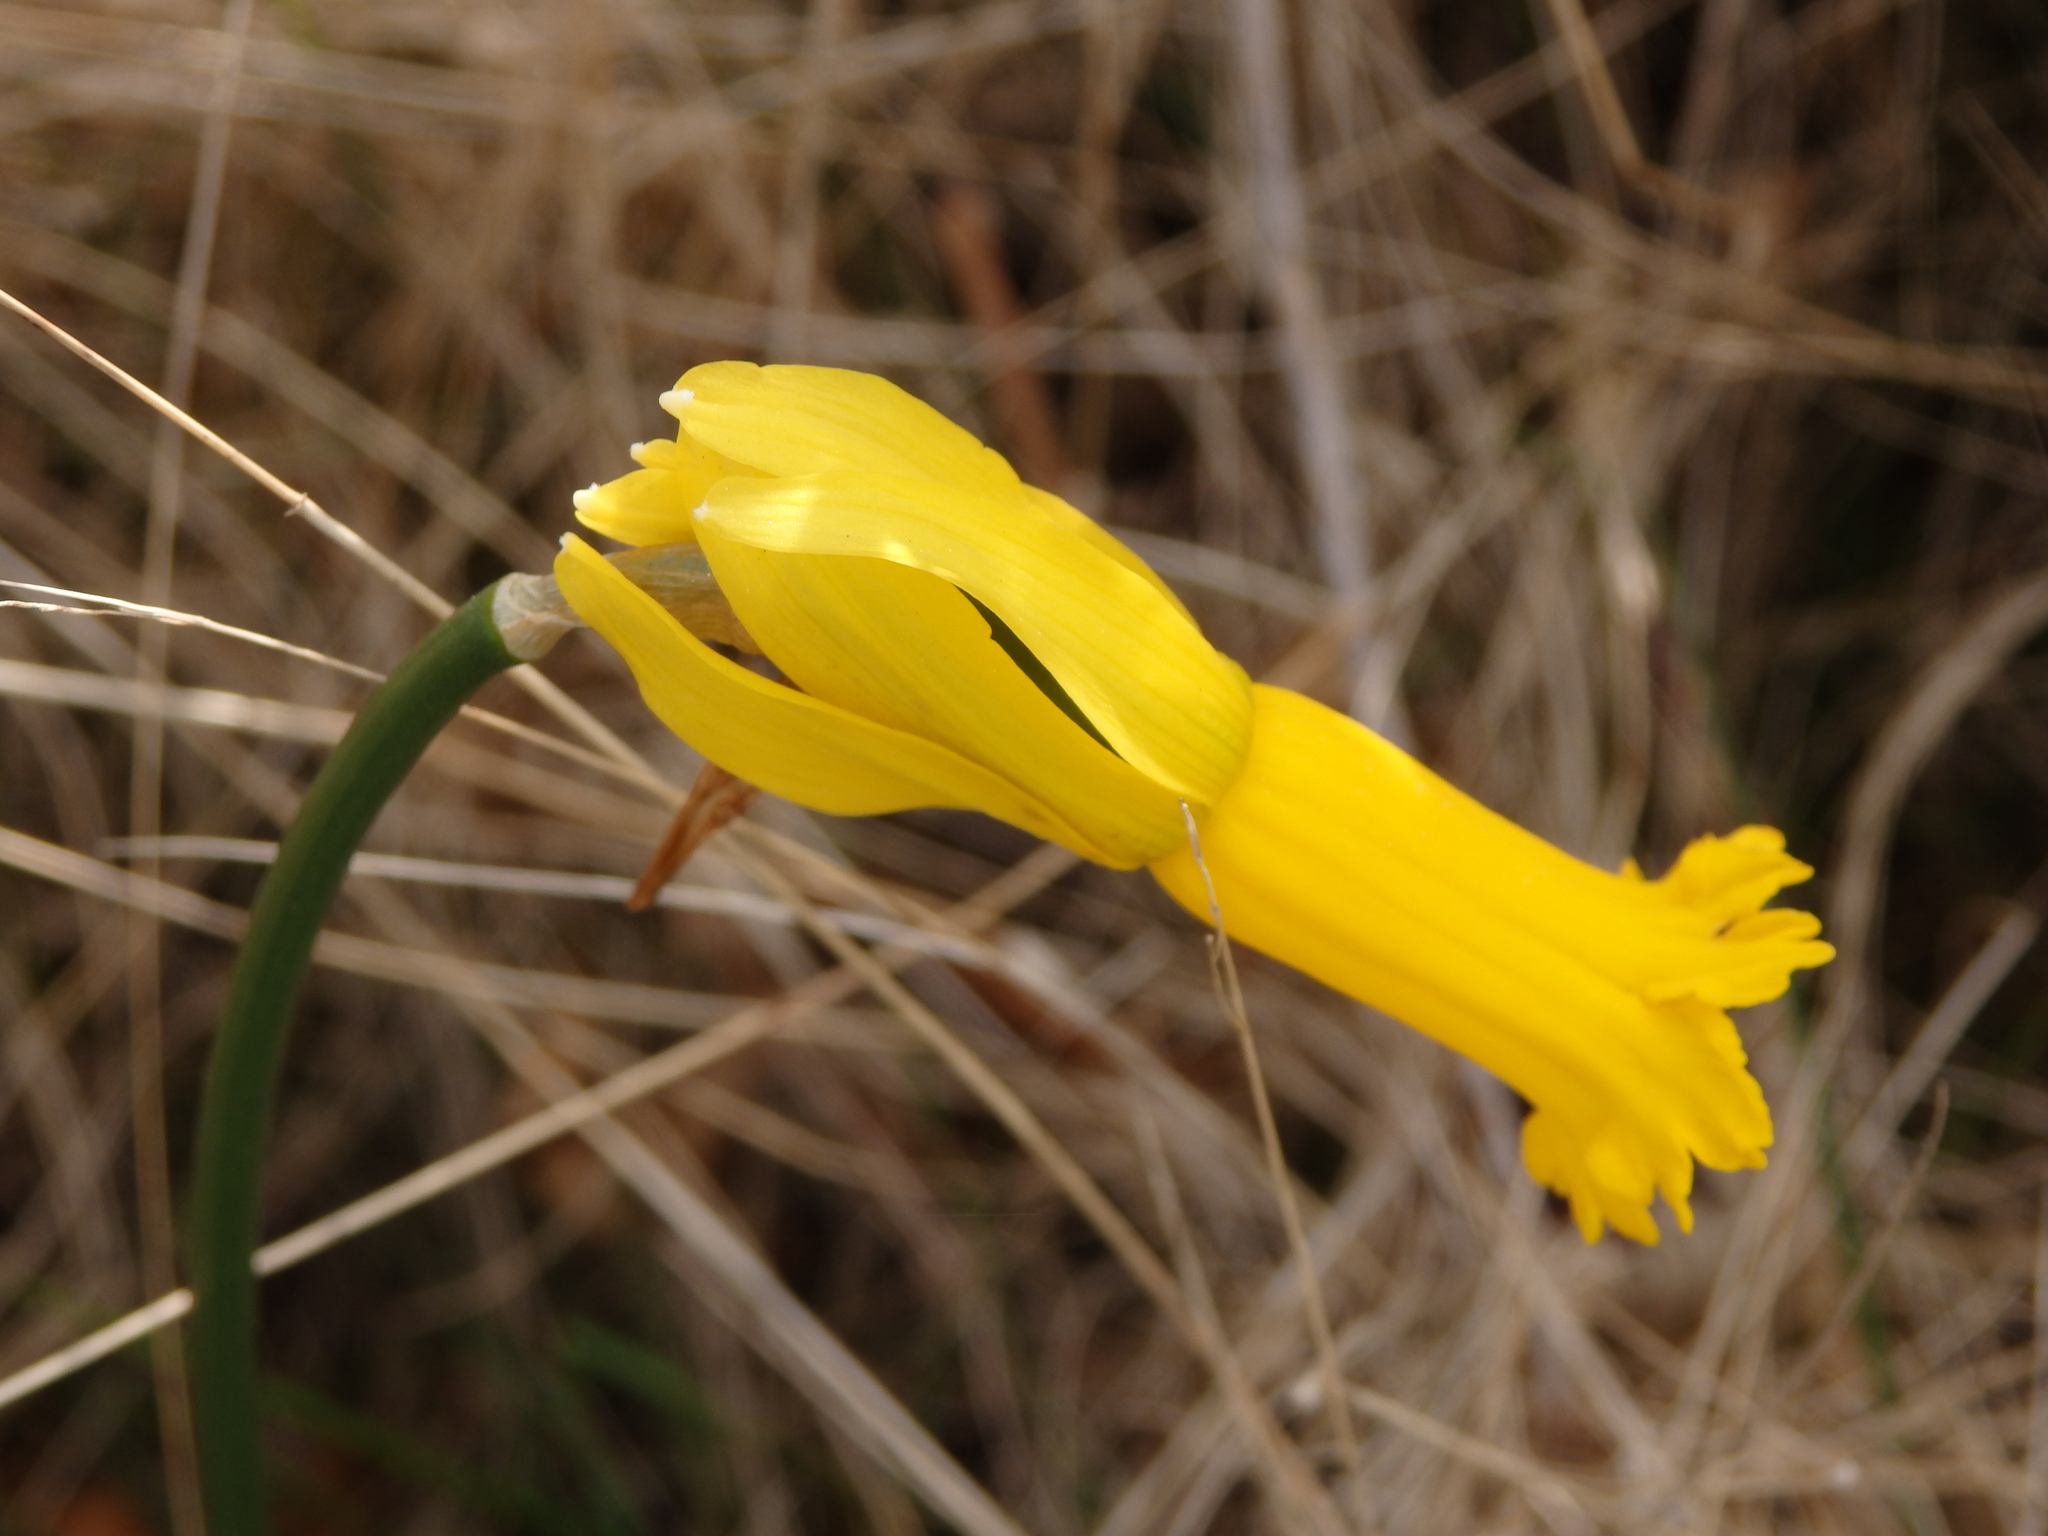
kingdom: Plantae
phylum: Tracheophyta
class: Liliopsida
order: Asparagales
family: Amaryllidaceae
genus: Narcissus
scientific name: Narcissus cyclamineus
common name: Cyclamen-flowered daffodil
